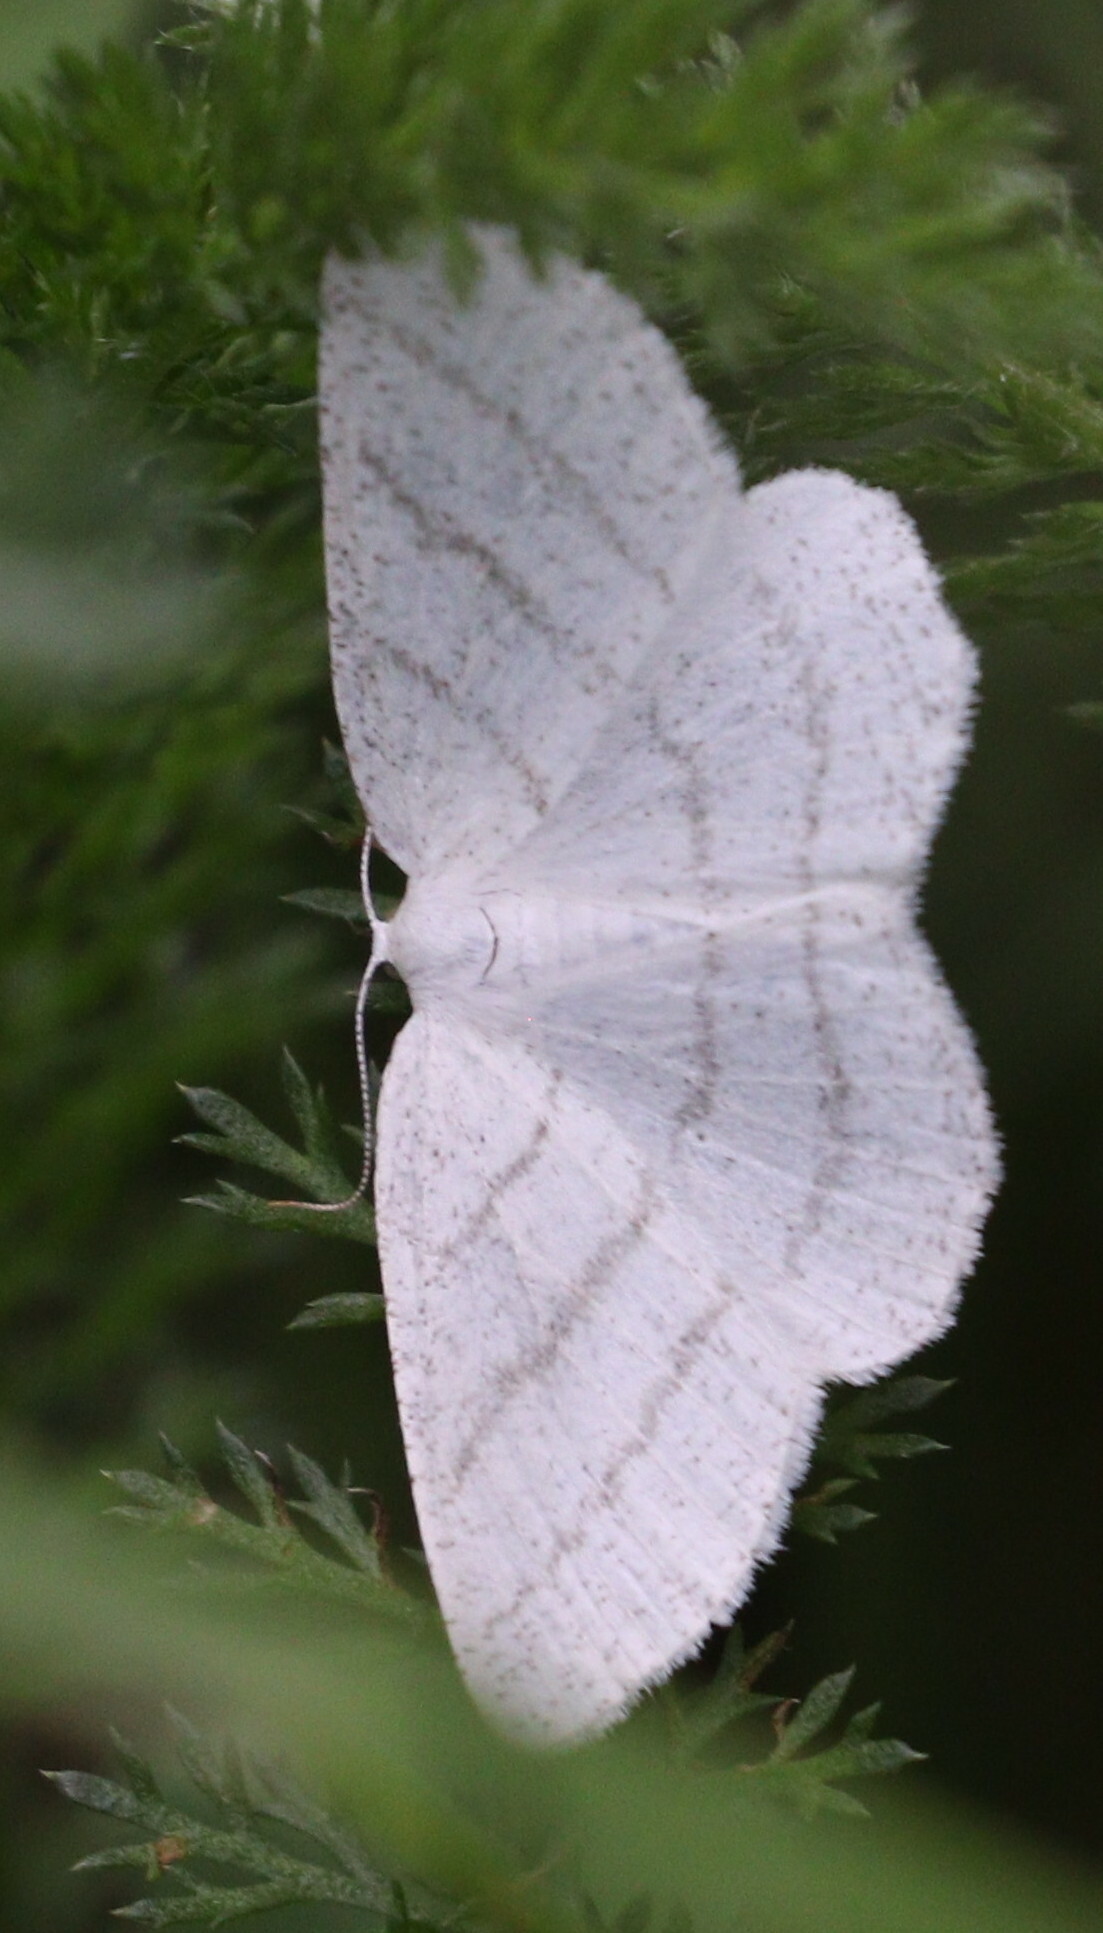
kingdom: Animalia
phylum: Arthropoda
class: Insecta
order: Lepidoptera
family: Geometridae
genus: Cabera
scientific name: Cabera pusaria
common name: Common white wave
